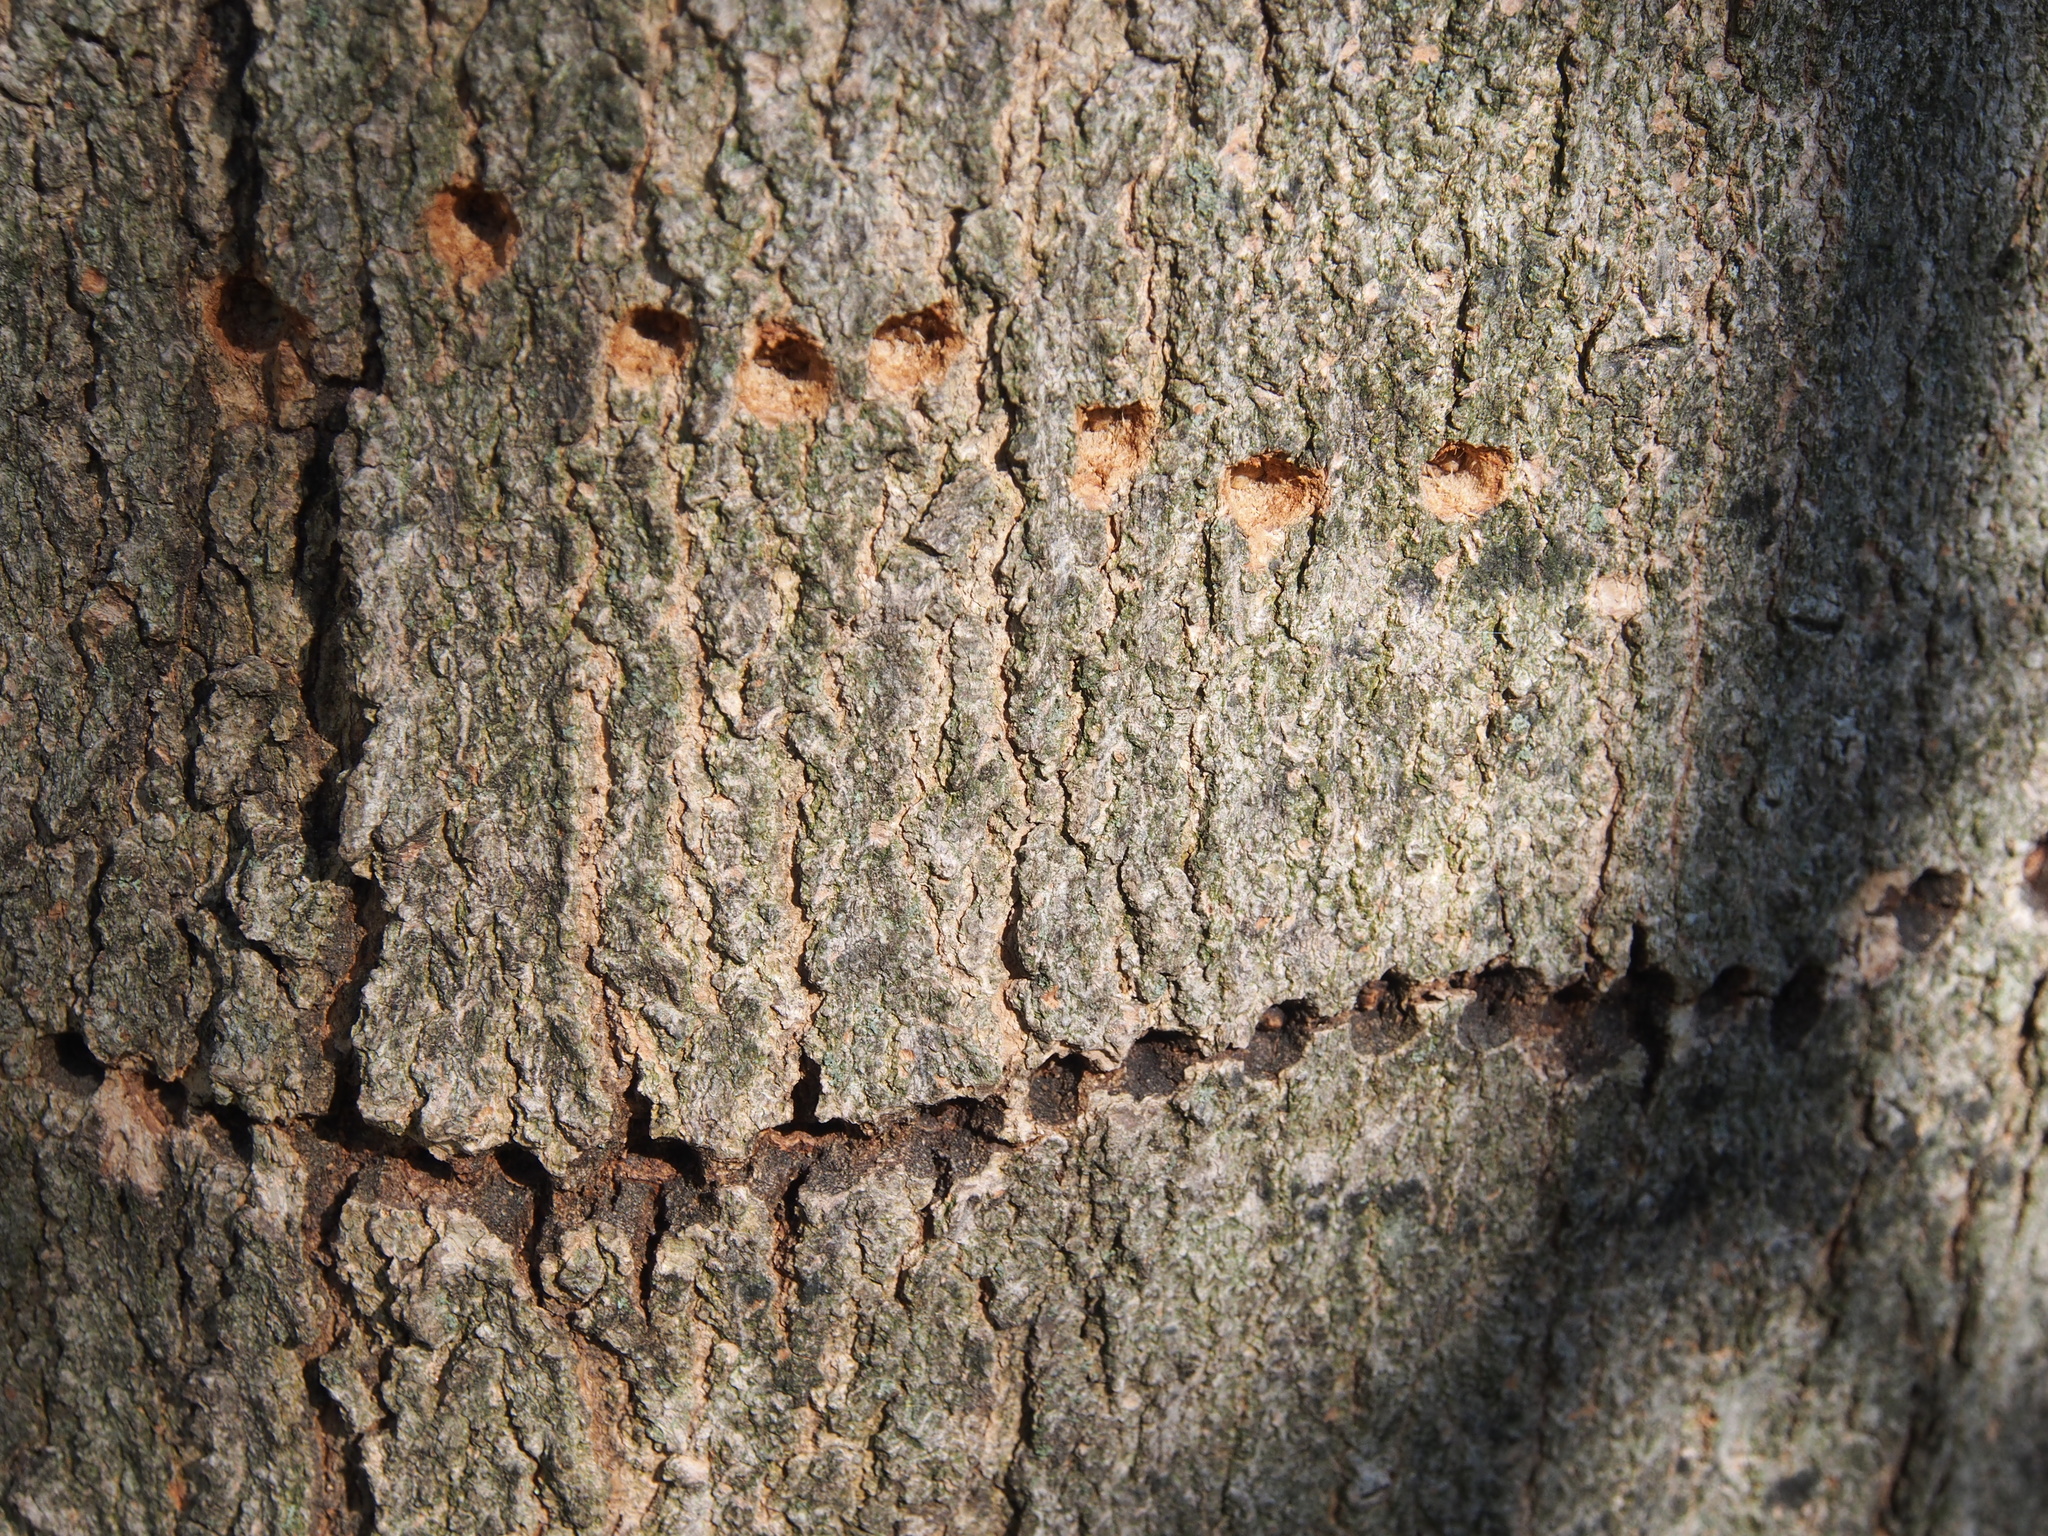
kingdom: Animalia
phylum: Chordata
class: Aves
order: Piciformes
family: Picidae
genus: Sphyrapicus
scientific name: Sphyrapicus varius
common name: Yellow-bellied sapsucker
